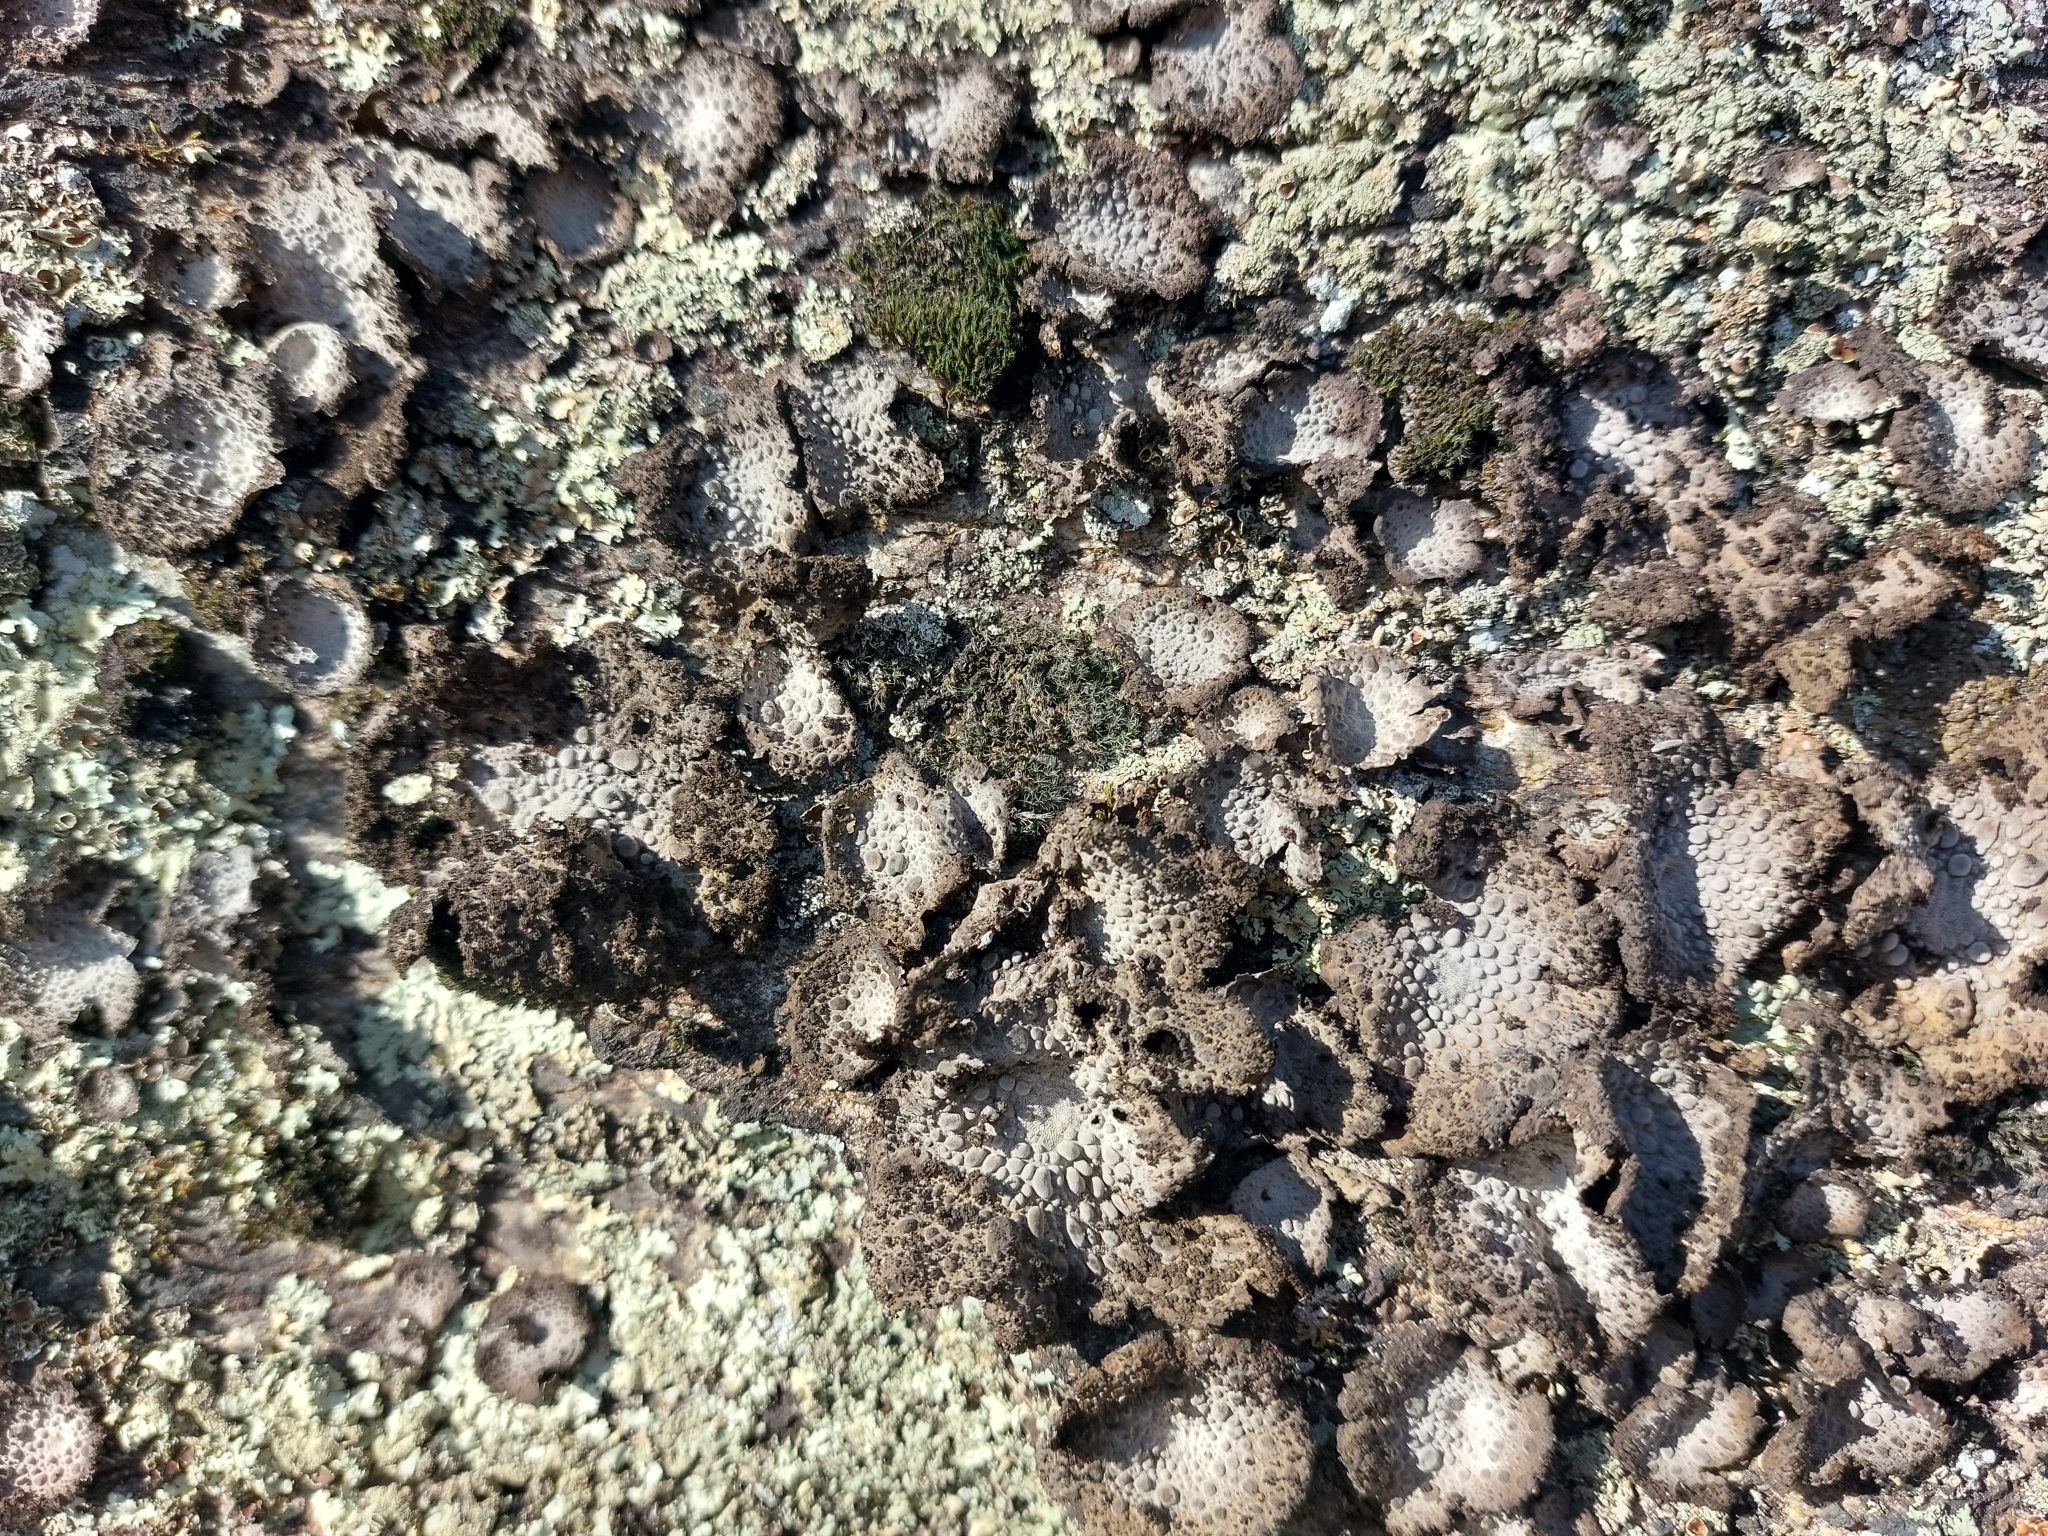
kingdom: Fungi
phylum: Ascomycota
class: Lecanoromycetes
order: Umbilicariales
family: Umbilicariaceae
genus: Lasallia
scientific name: Lasallia pustulata
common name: Blistered toadskin lichen
